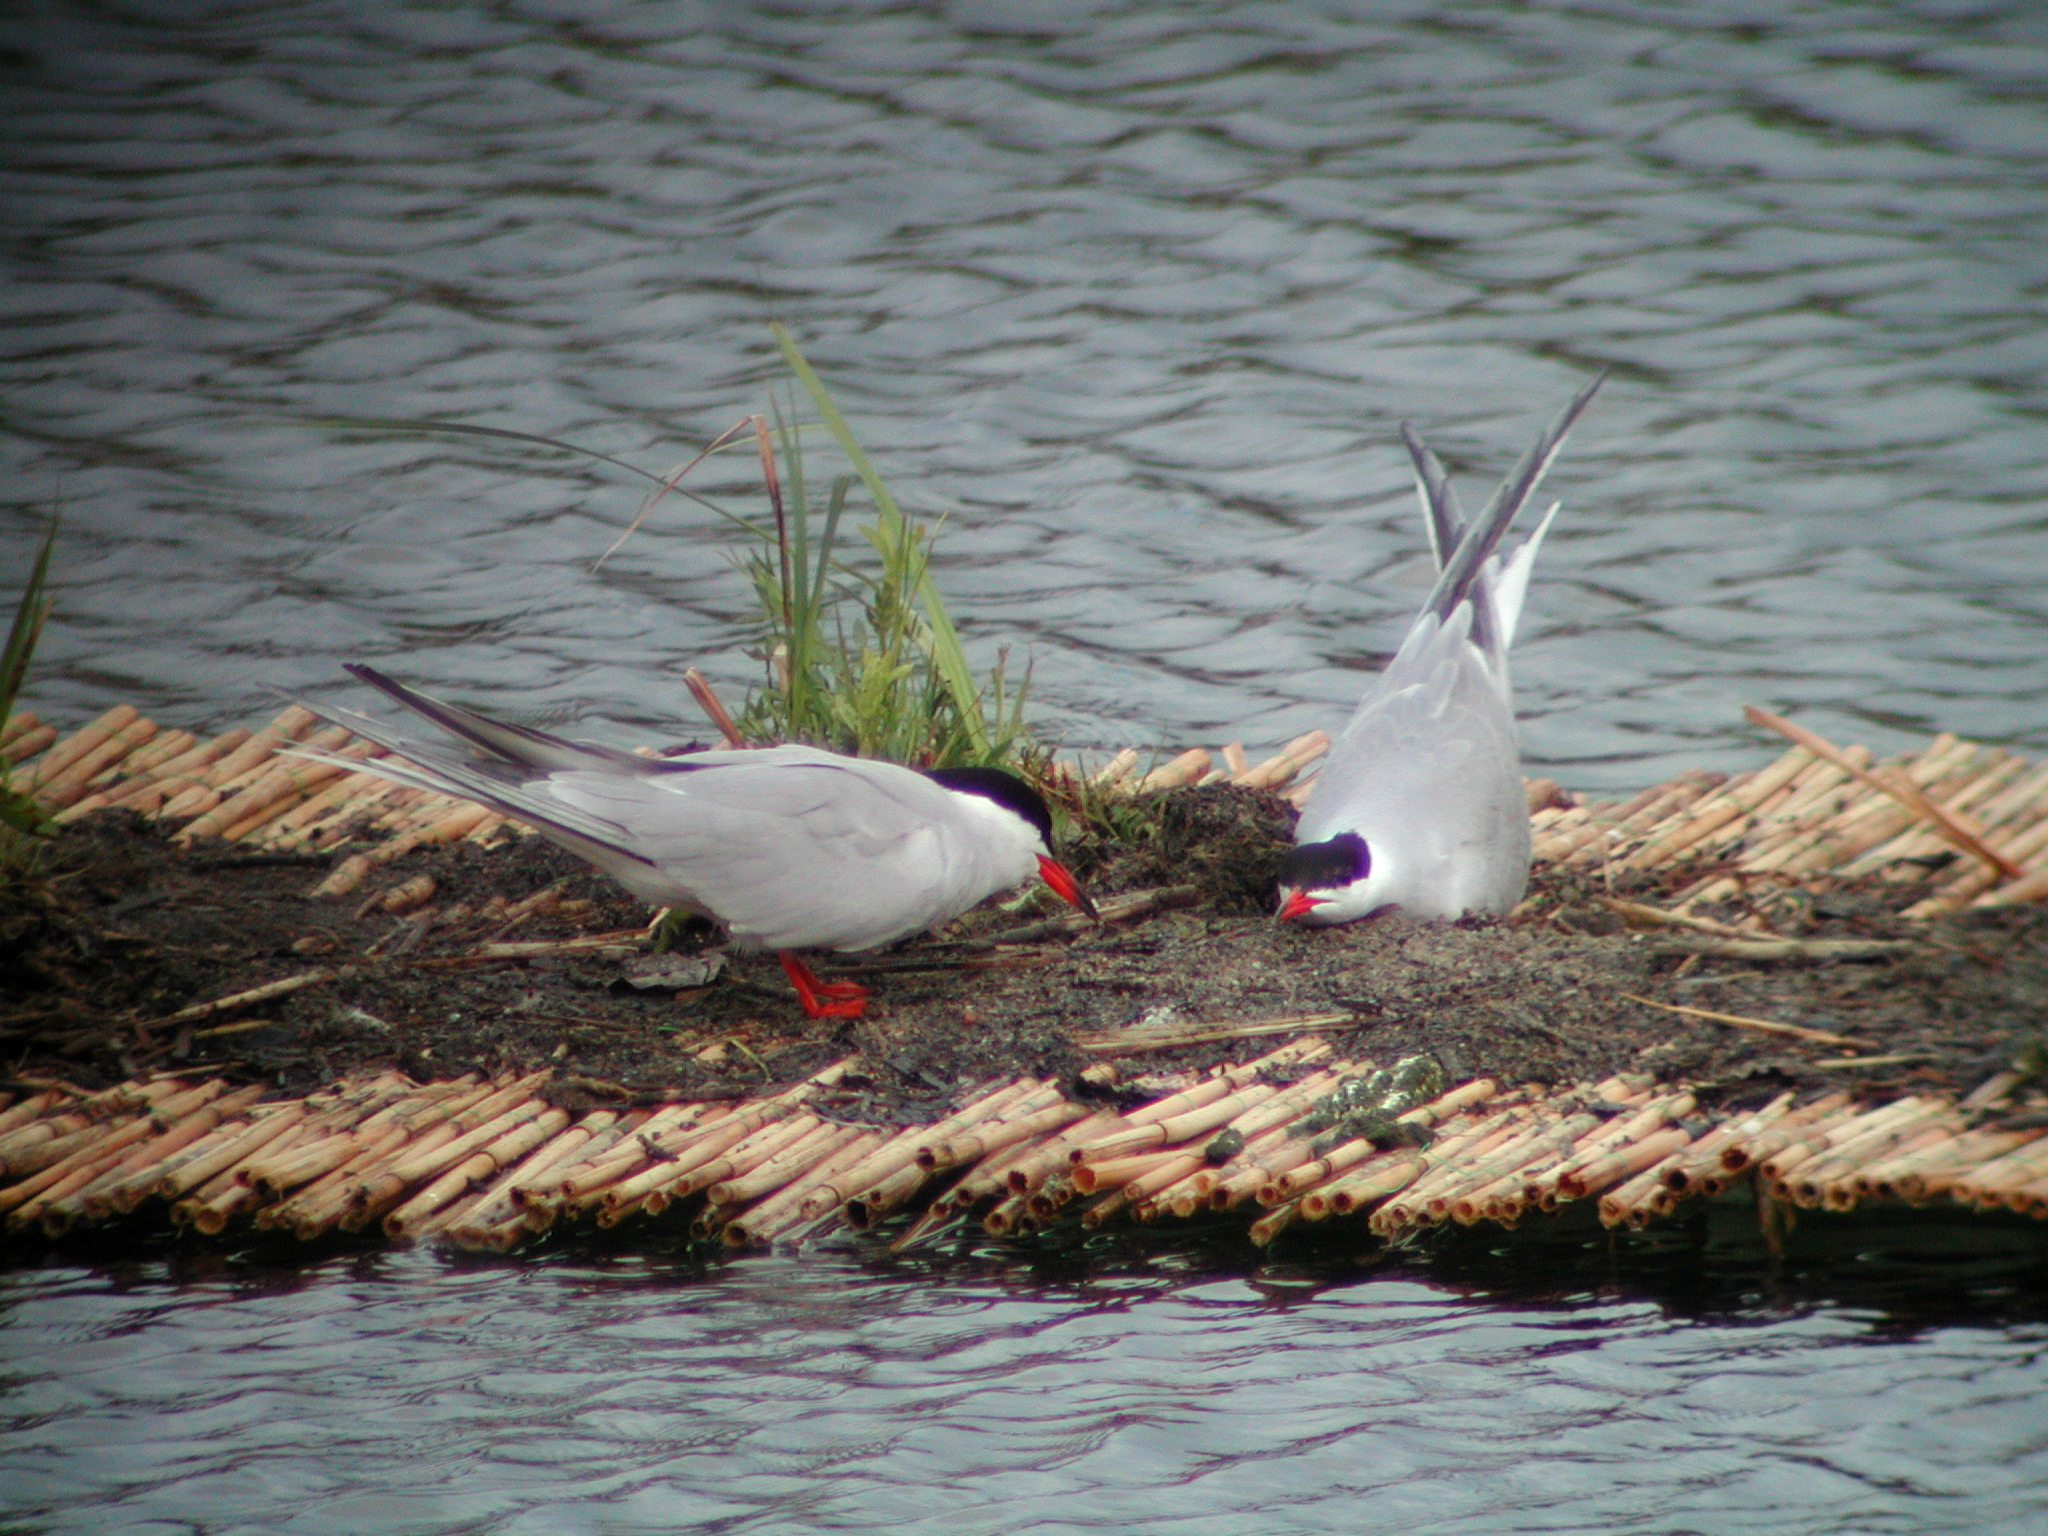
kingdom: Animalia
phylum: Chordata
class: Aves
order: Charadriiformes
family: Laridae
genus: Sterna
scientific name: Sterna hirundo
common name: Common tern
